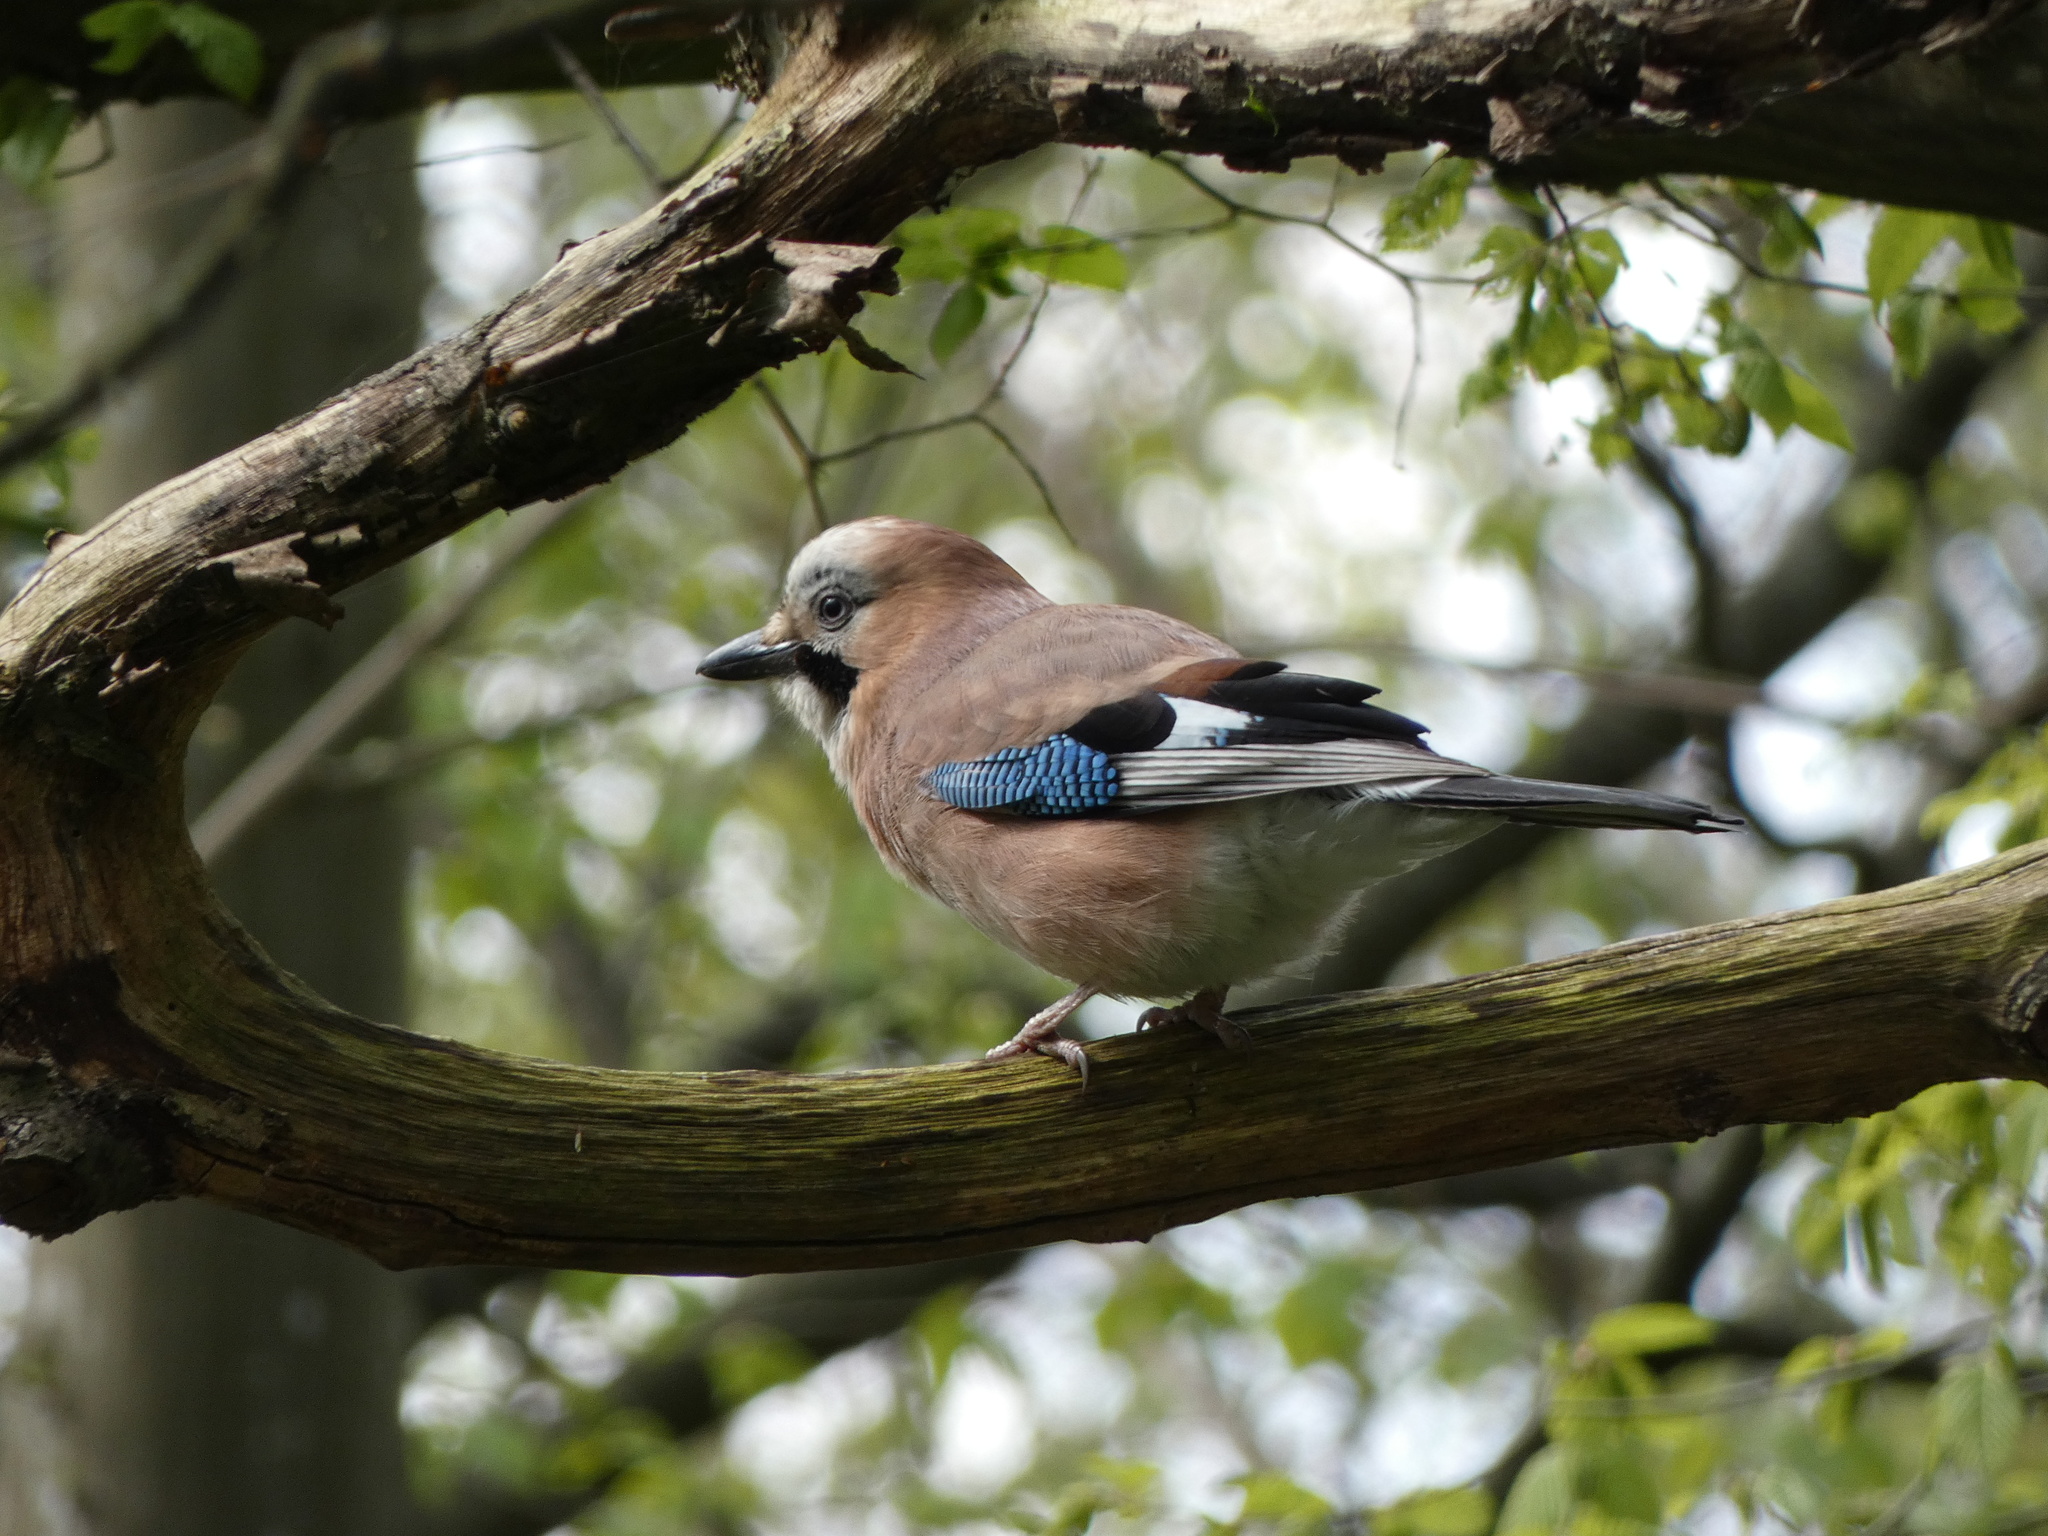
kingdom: Animalia
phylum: Chordata
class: Aves
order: Passeriformes
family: Corvidae
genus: Garrulus
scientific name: Garrulus glandarius
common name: Eurasian jay
